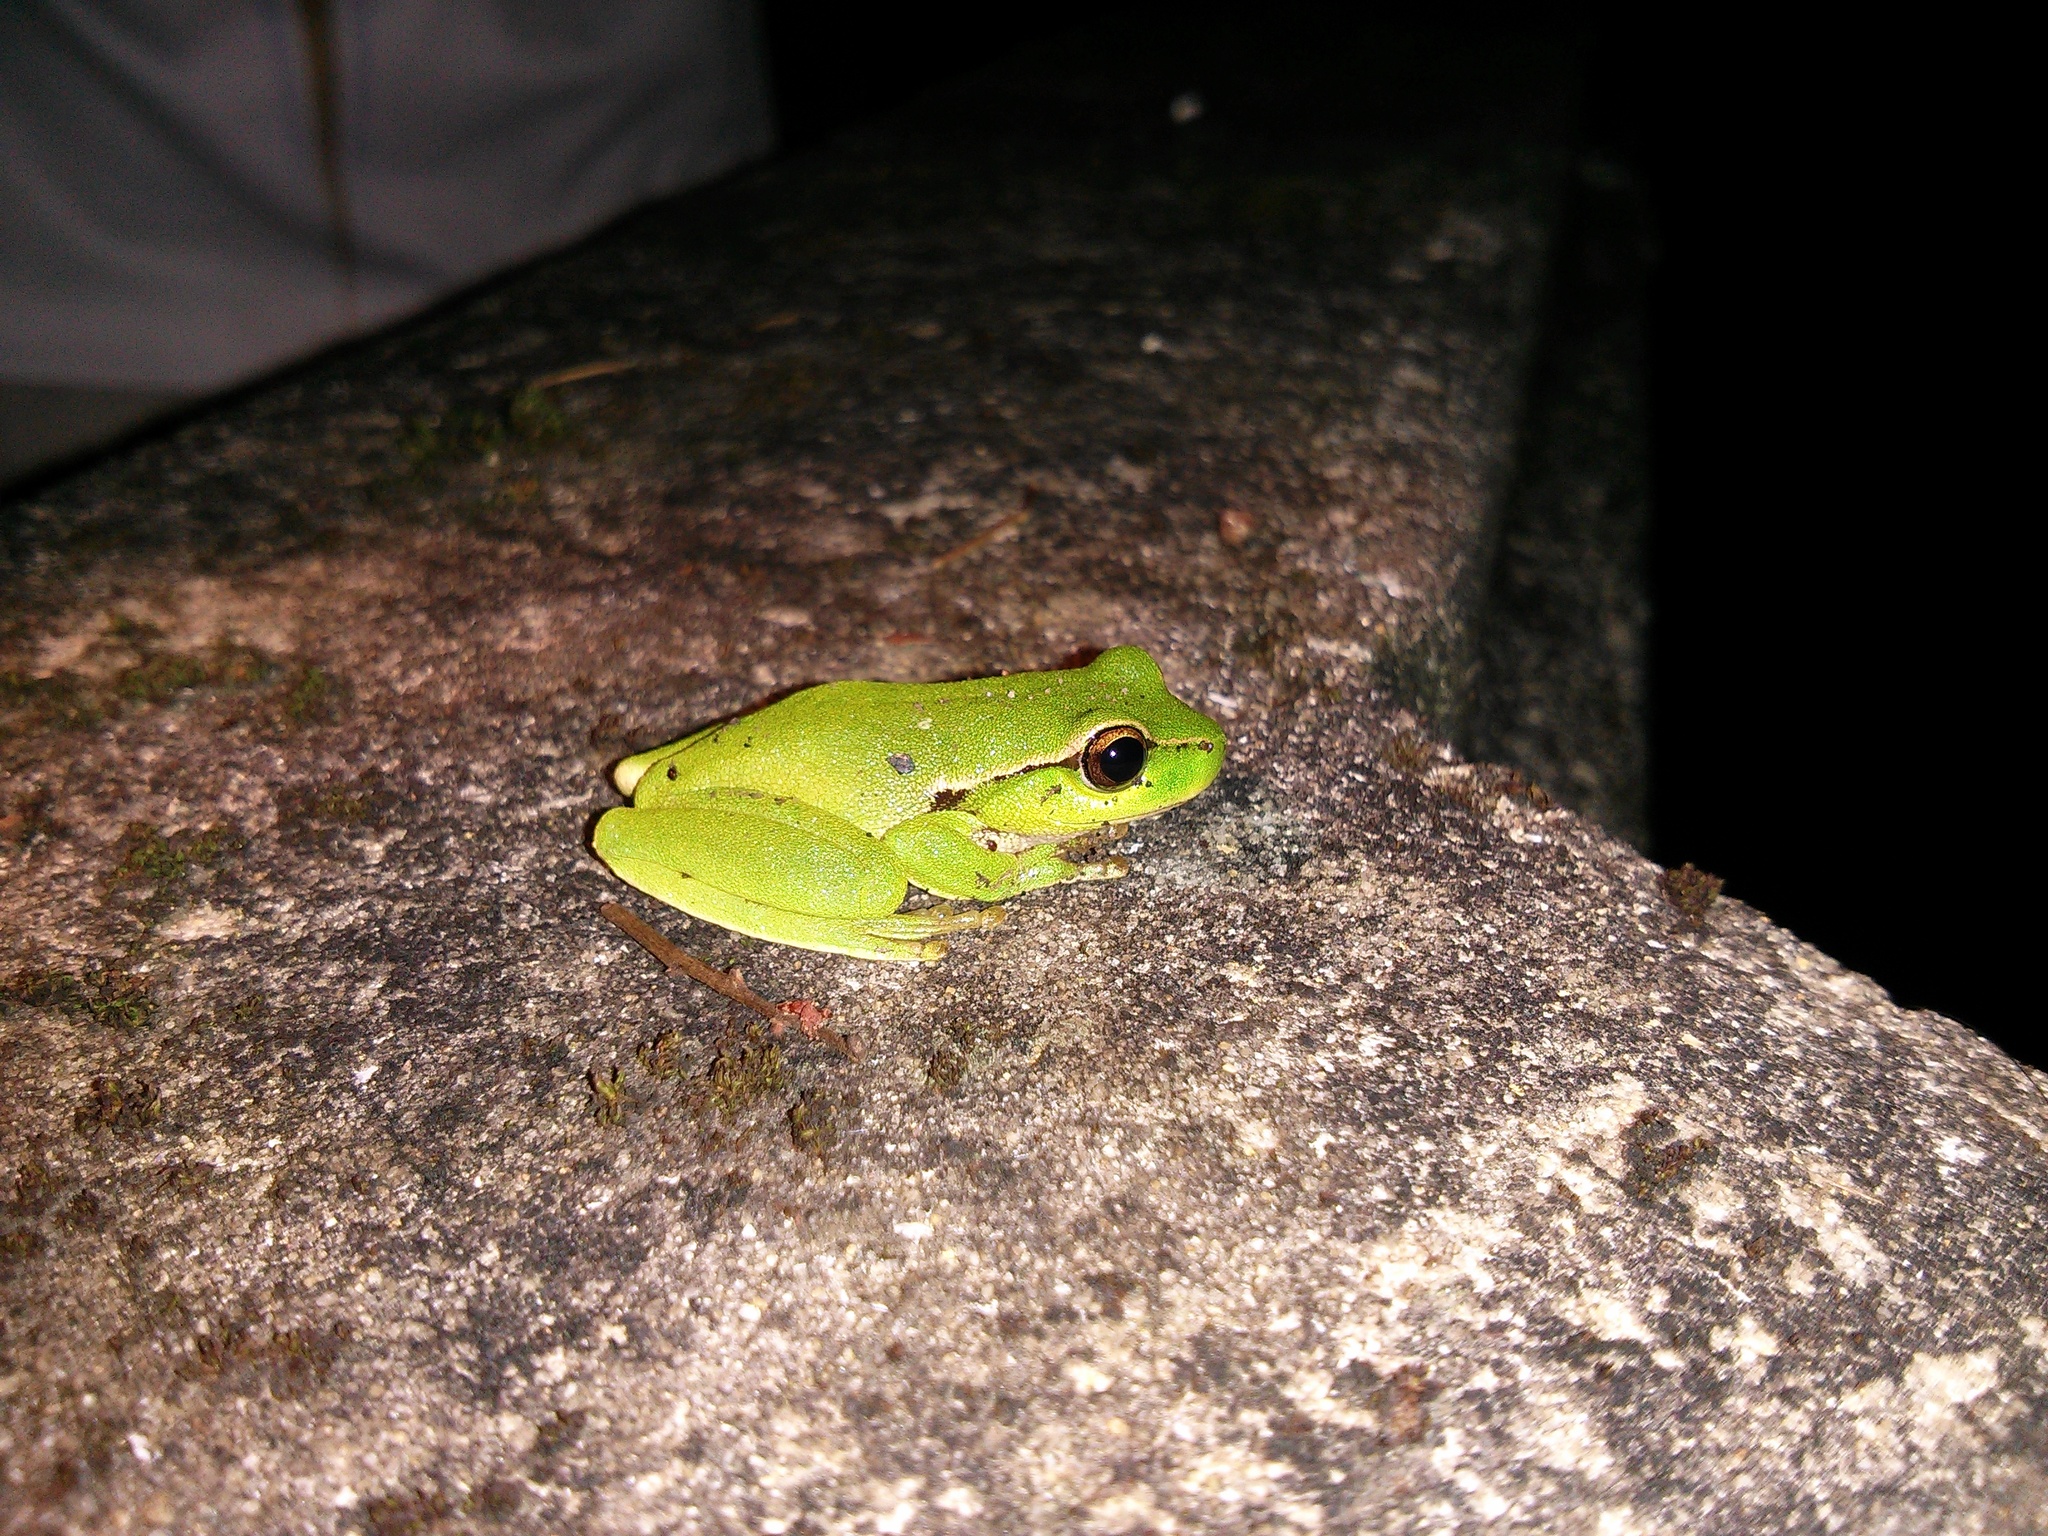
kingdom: Animalia
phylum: Chordata
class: Amphibia
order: Anura
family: Pelodryadidae
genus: Ranoidea
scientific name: Ranoidea phyllochroa
